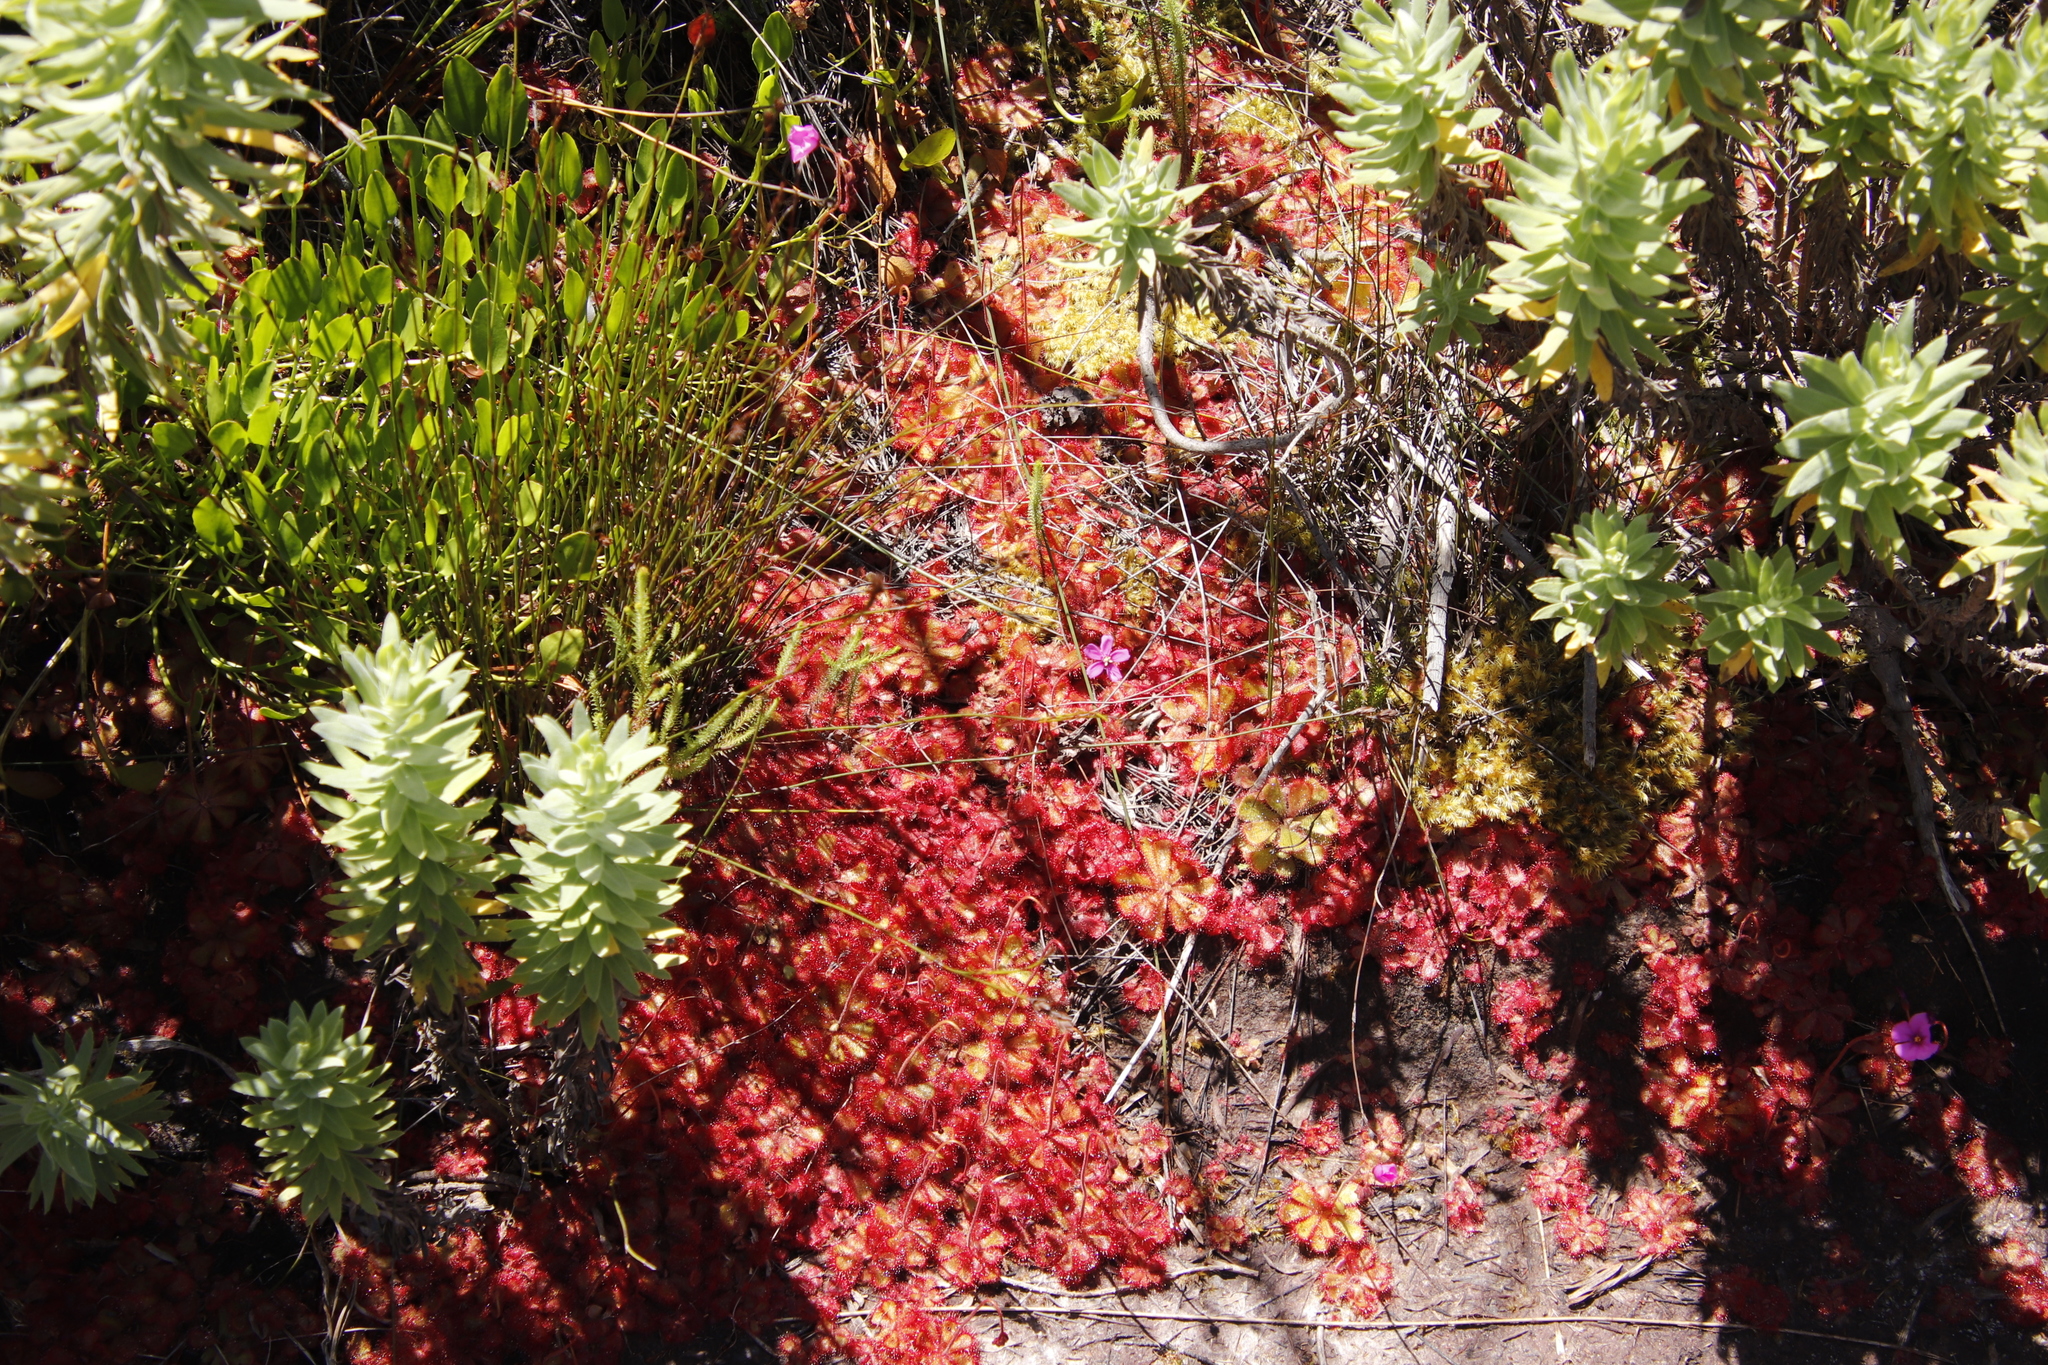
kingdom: Plantae
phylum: Tracheophyta
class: Magnoliopsida
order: Asterales
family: Asteraceae
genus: Osmitopsis
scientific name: Osmitopsis asteriscoides
